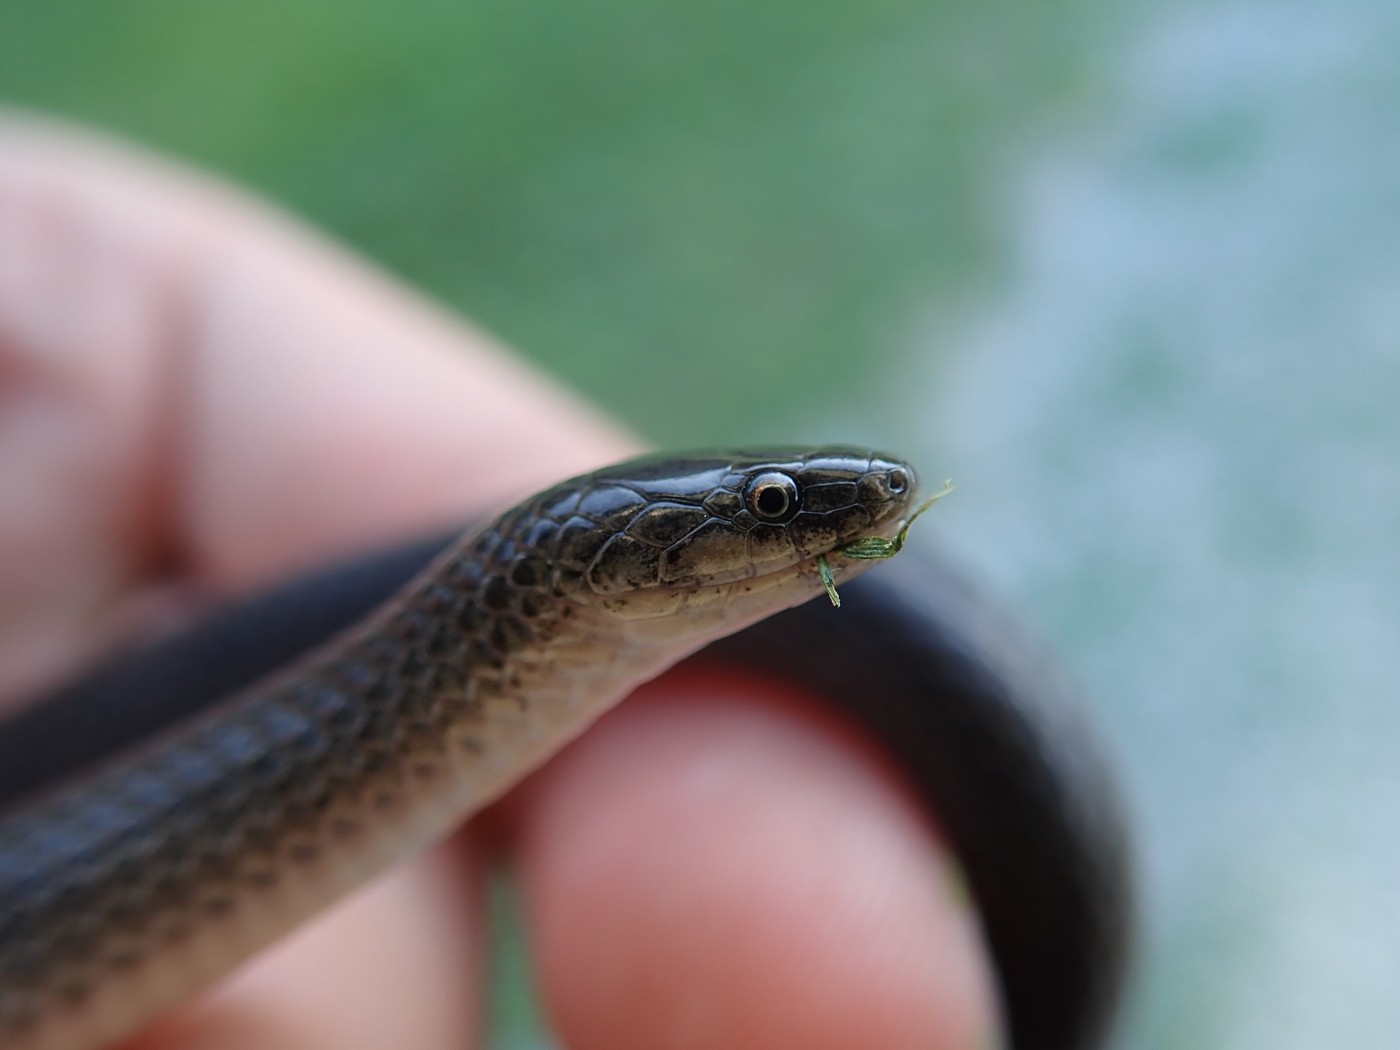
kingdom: Animalia
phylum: Chordata
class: Squamata
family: Colubridae
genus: Virginia
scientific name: Virginia valeriae
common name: Smooth earth snake
